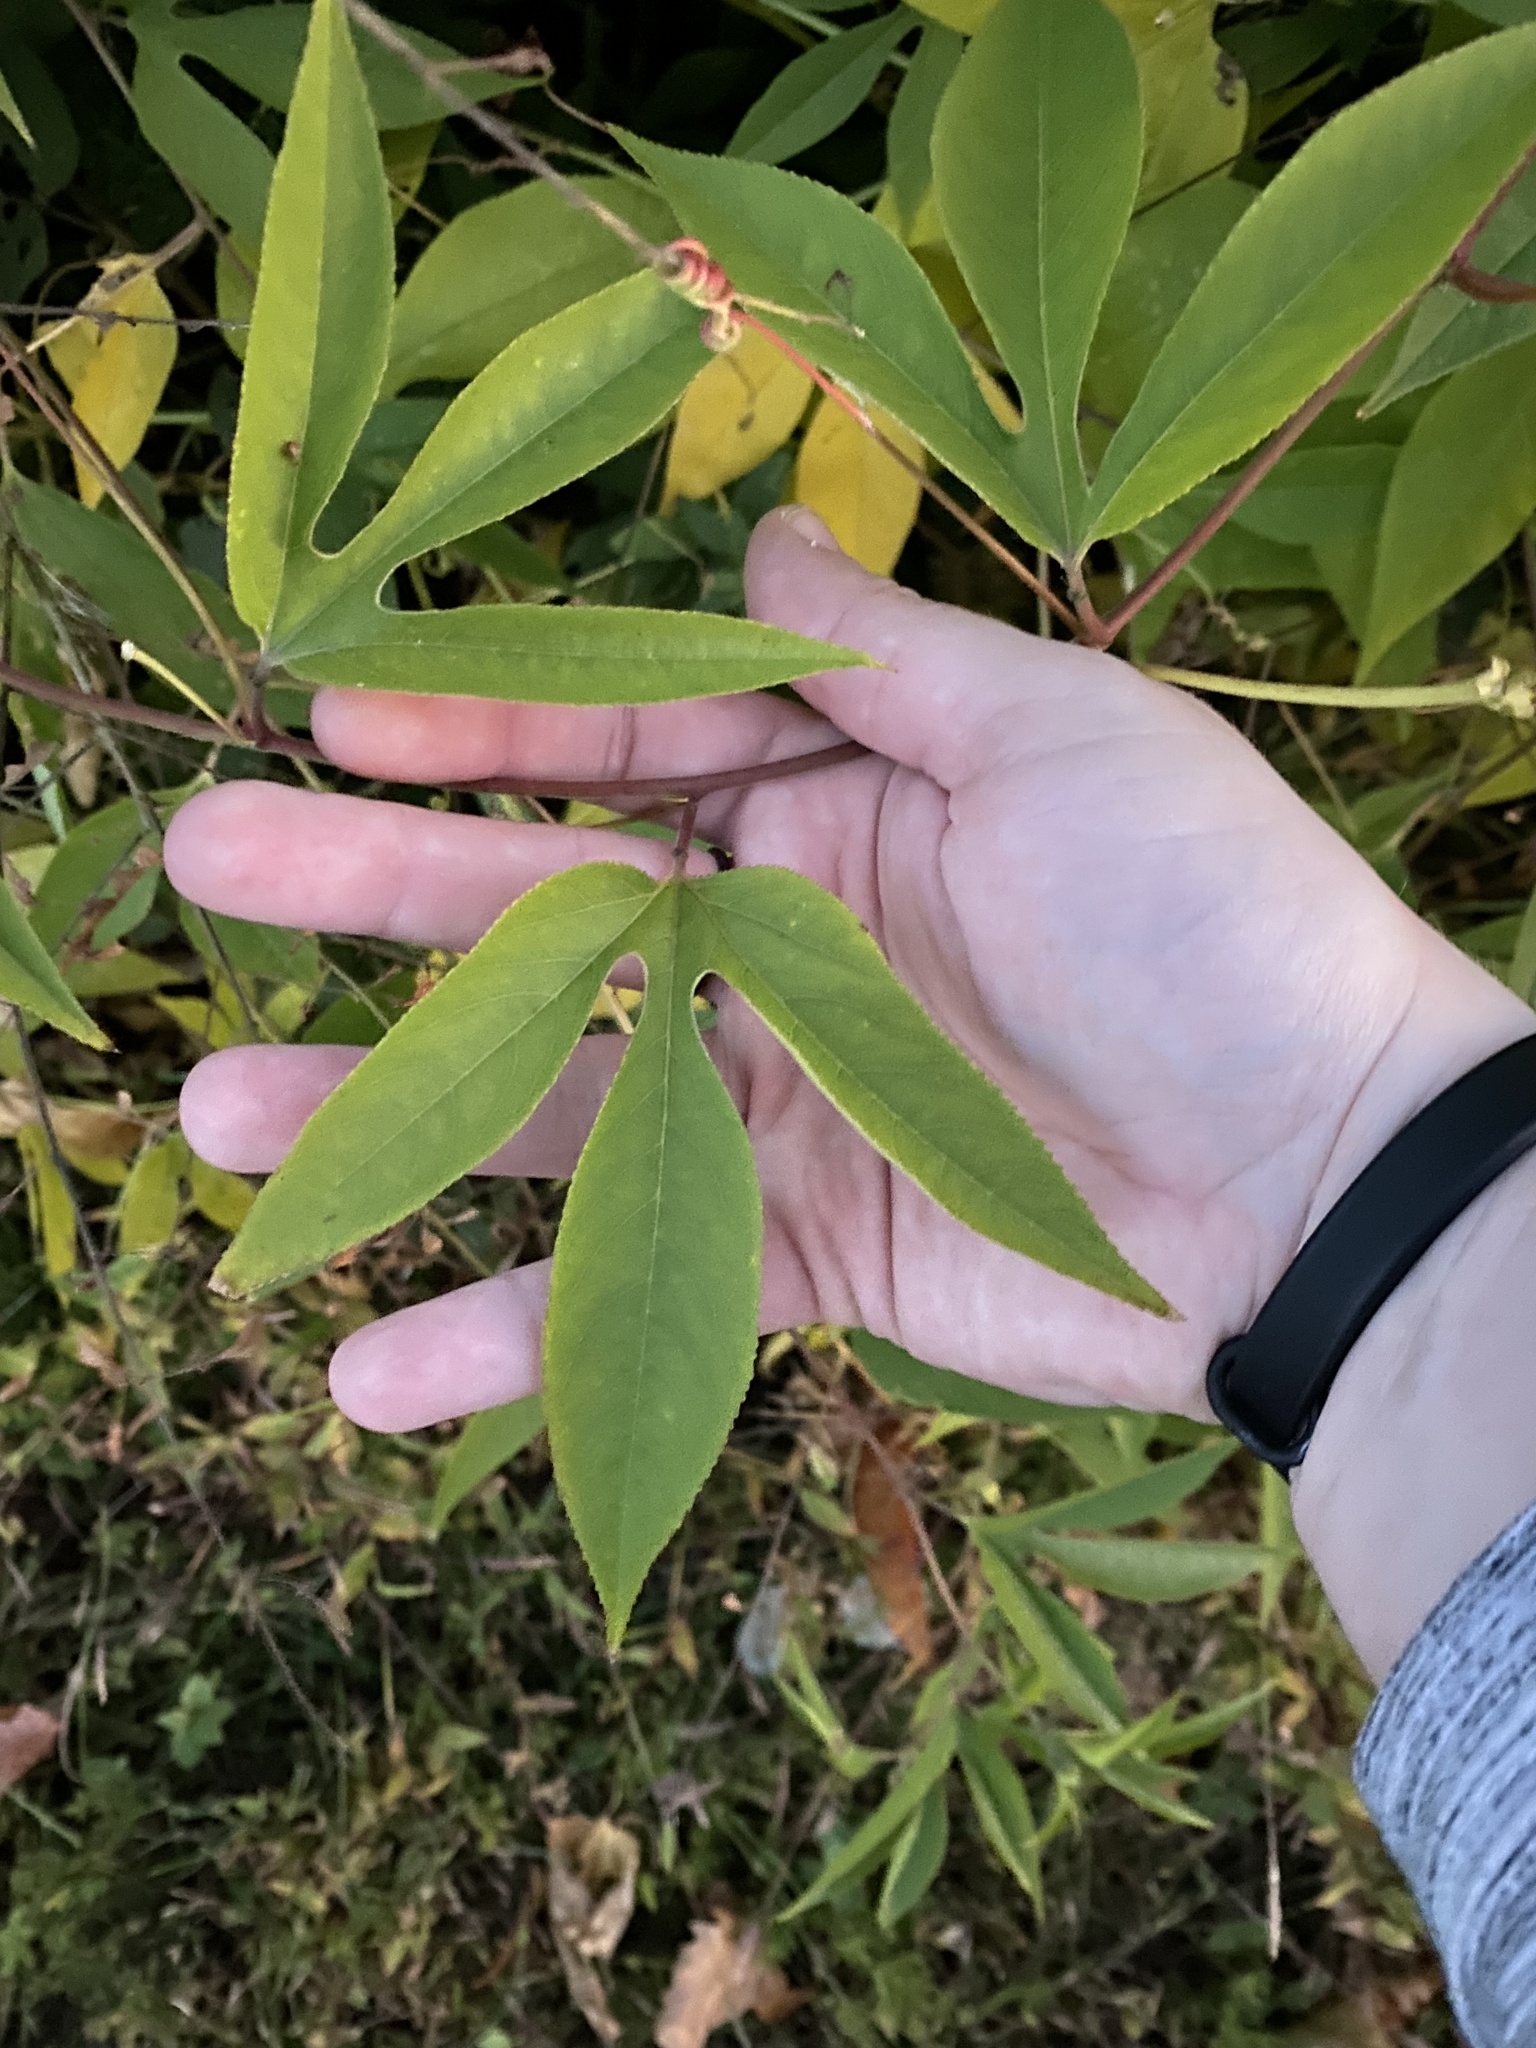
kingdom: Plantae
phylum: Tracheophyta
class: Magnoliopsida
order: Malpighiales
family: Passifloraceae
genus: Passiflora
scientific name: Passiflora incarnata
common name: Apricot-vine
